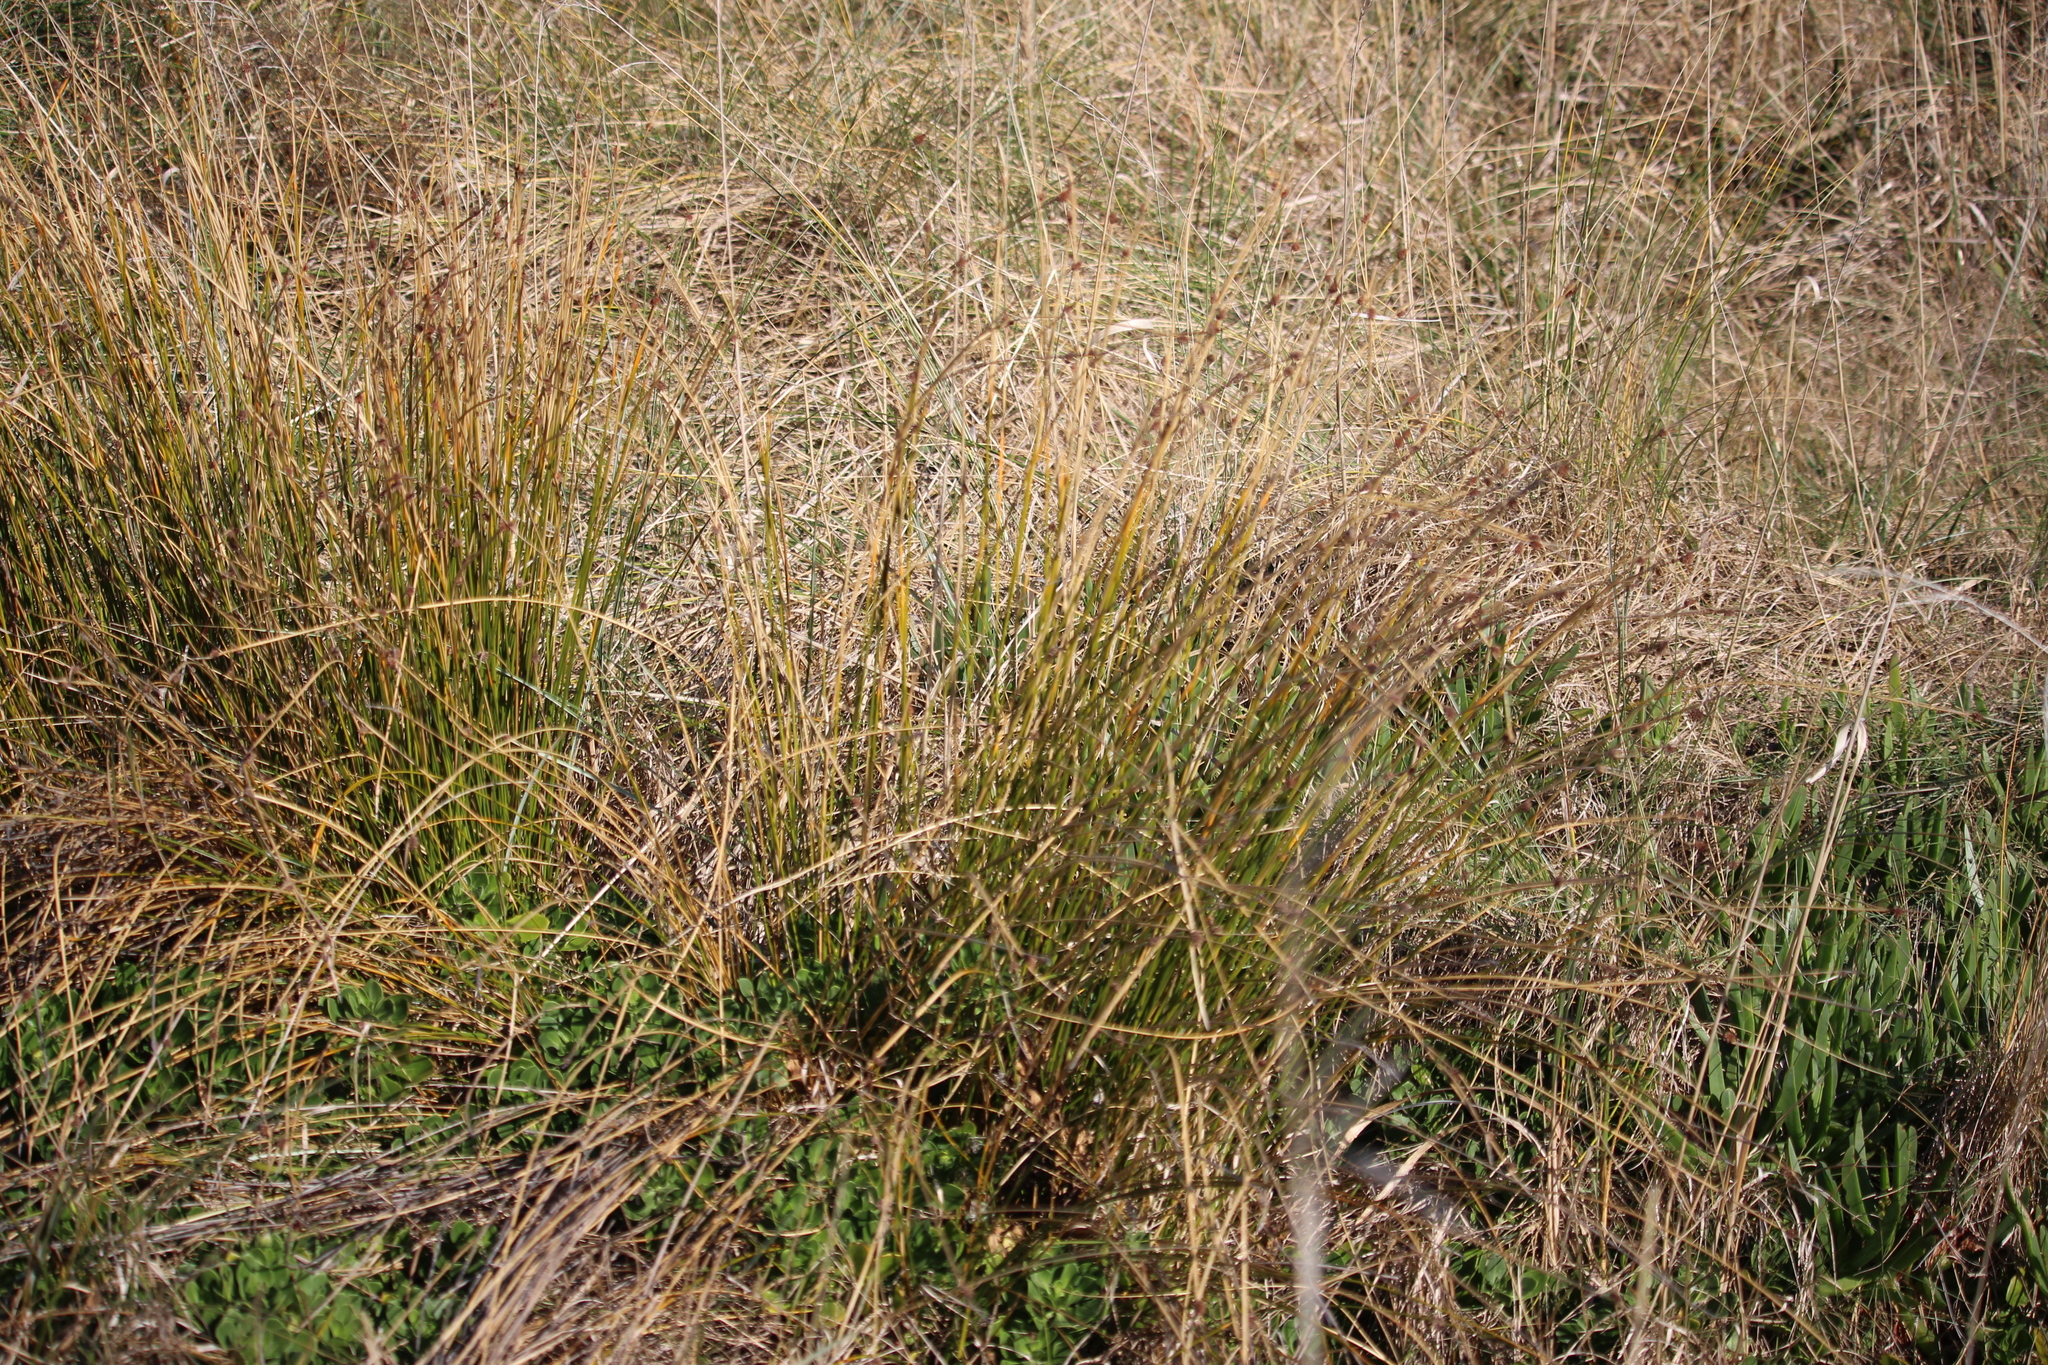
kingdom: Plantae
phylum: Tracheophyta
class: Liliopsida
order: Poales
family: Cyperaceae
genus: Ficinia
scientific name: Ficinia nodosa
